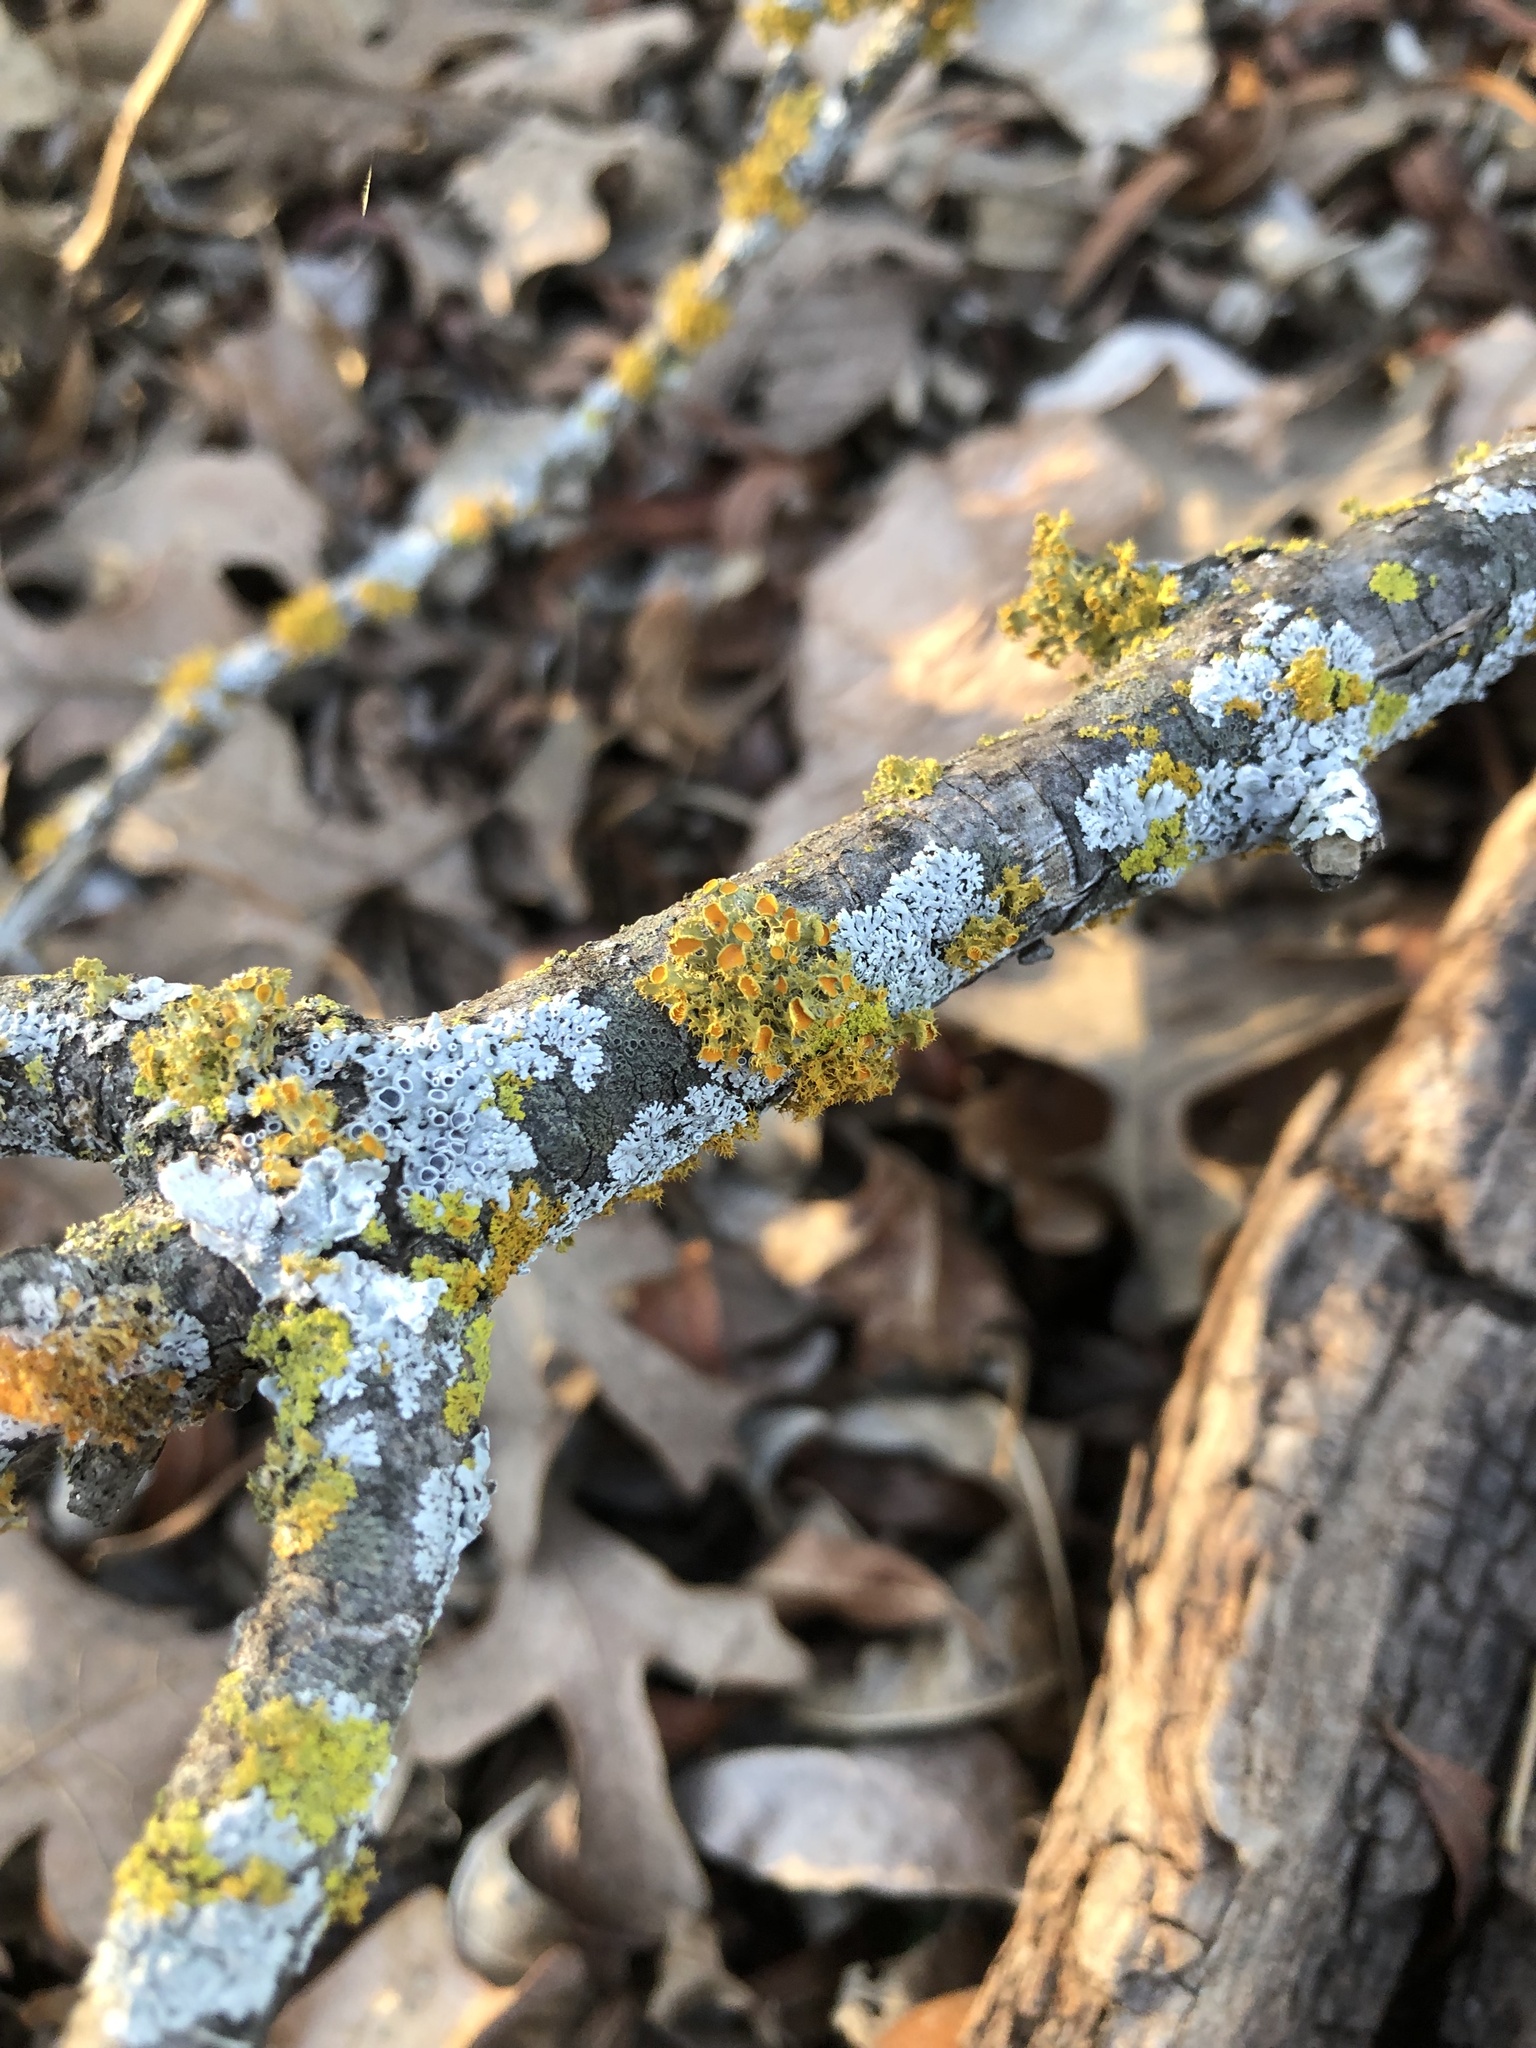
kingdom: Fungi
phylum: Ascomycota
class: Lecanoromycetes
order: Teloschistales
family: Teloschistaceae
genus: Niorma
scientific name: Niorma chrysophthalma
